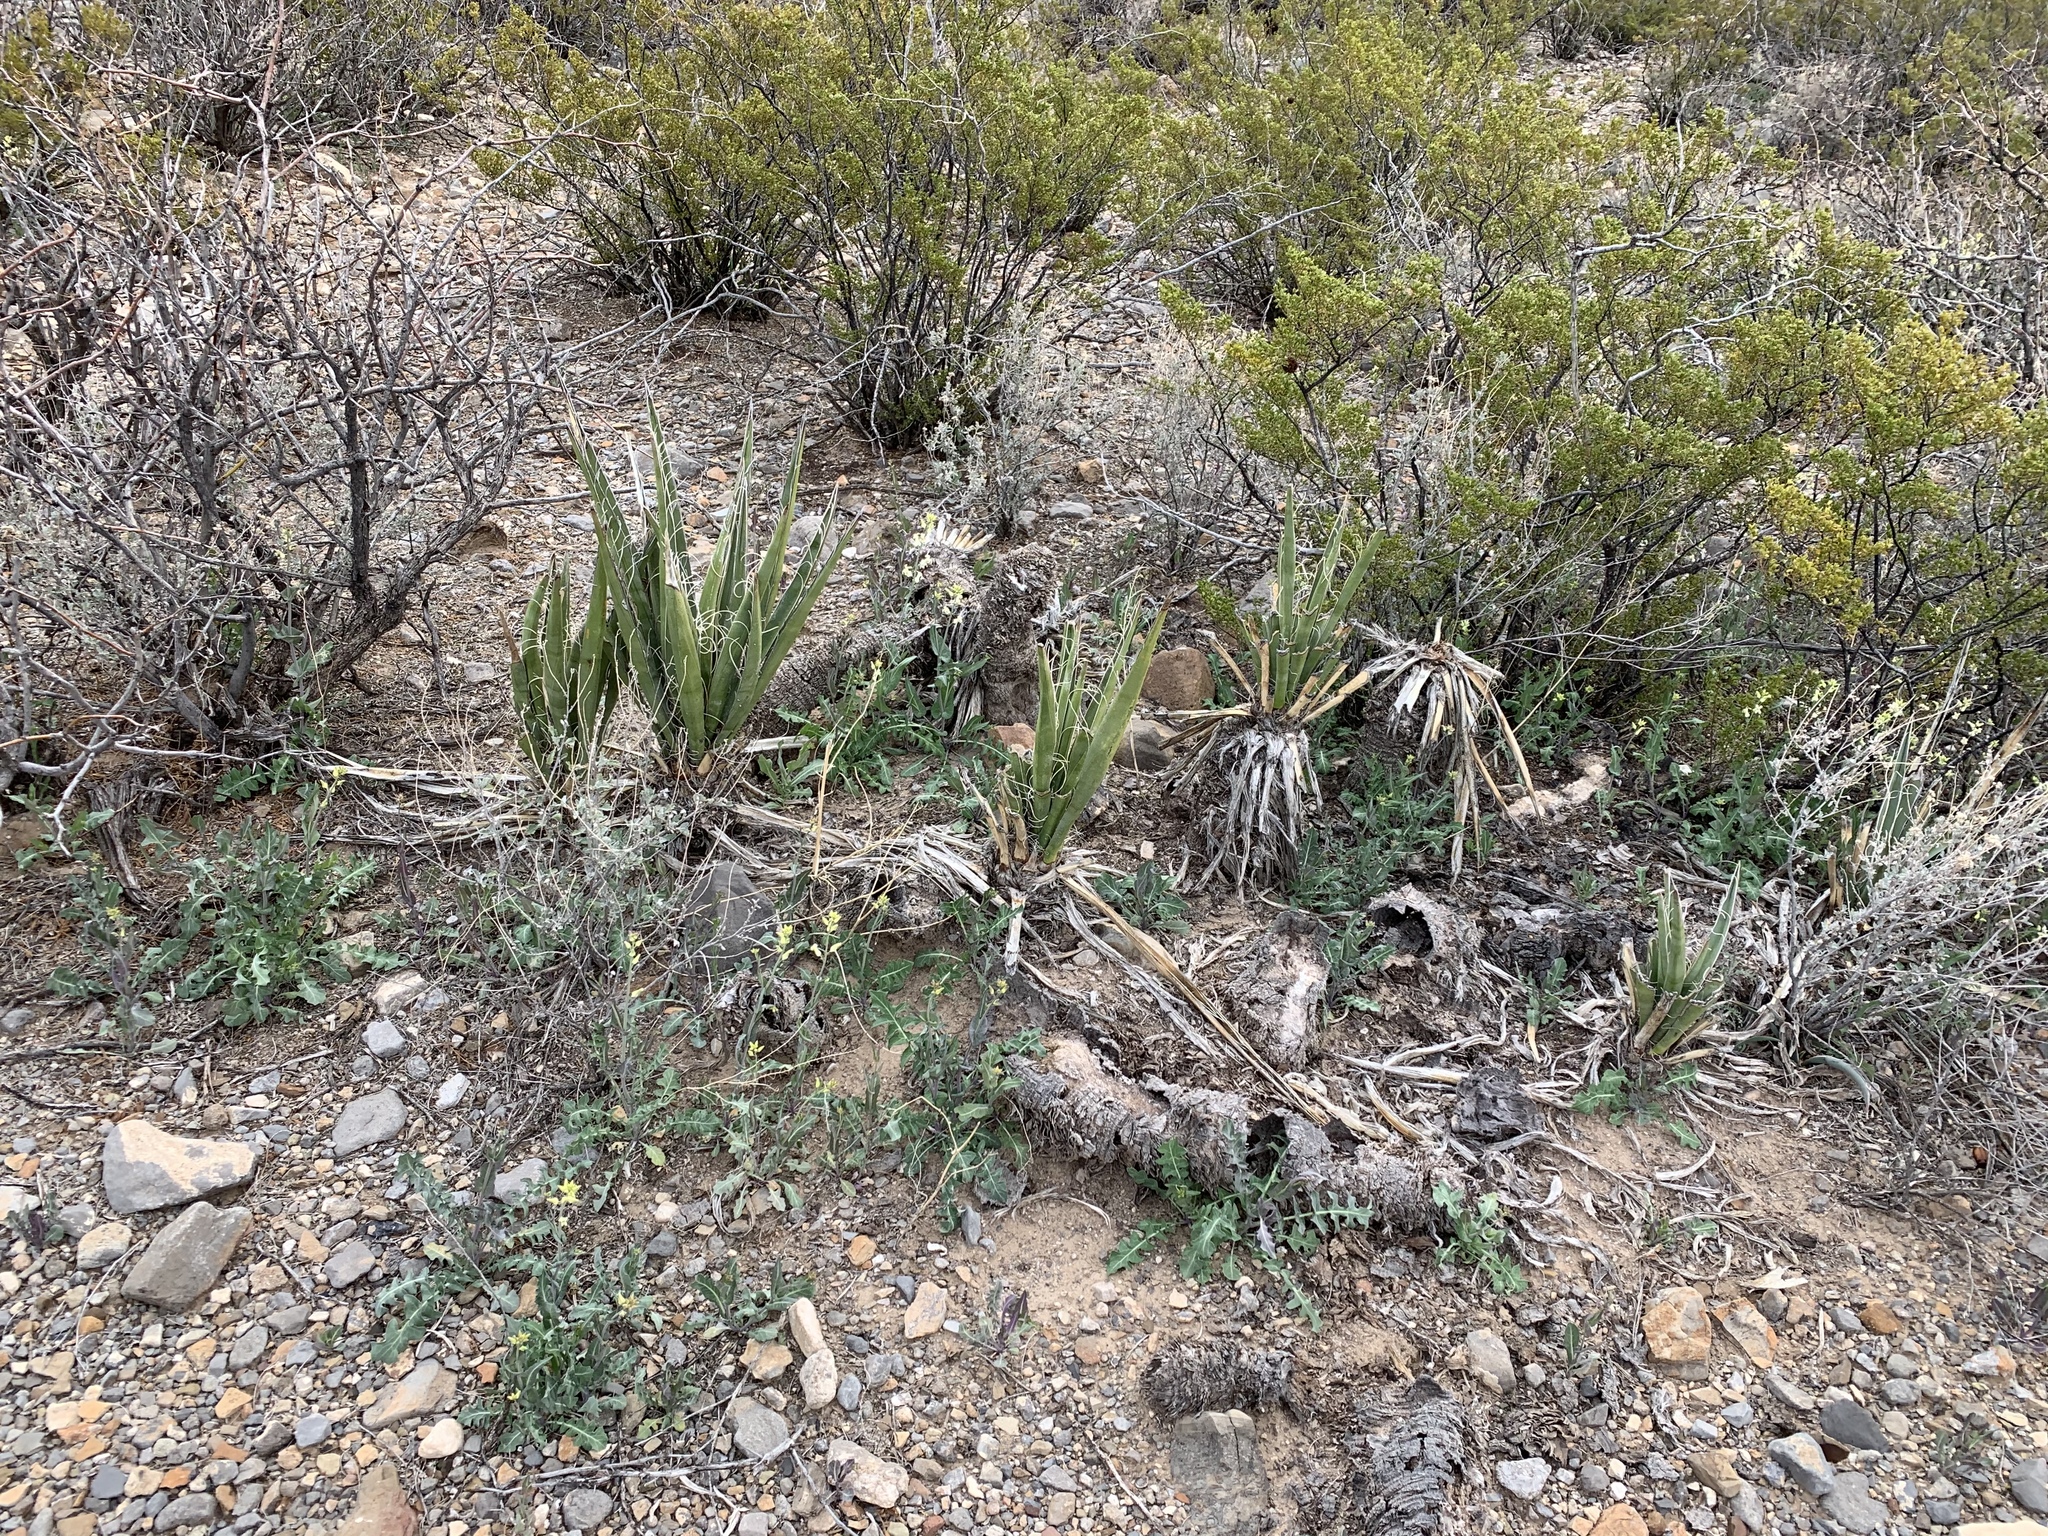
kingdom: Plantae
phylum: Tracheophyta
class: Liliopsida
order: Asparagales
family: Asparagaceae
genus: Yucca
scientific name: Yucca baccata
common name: Banana yucca
